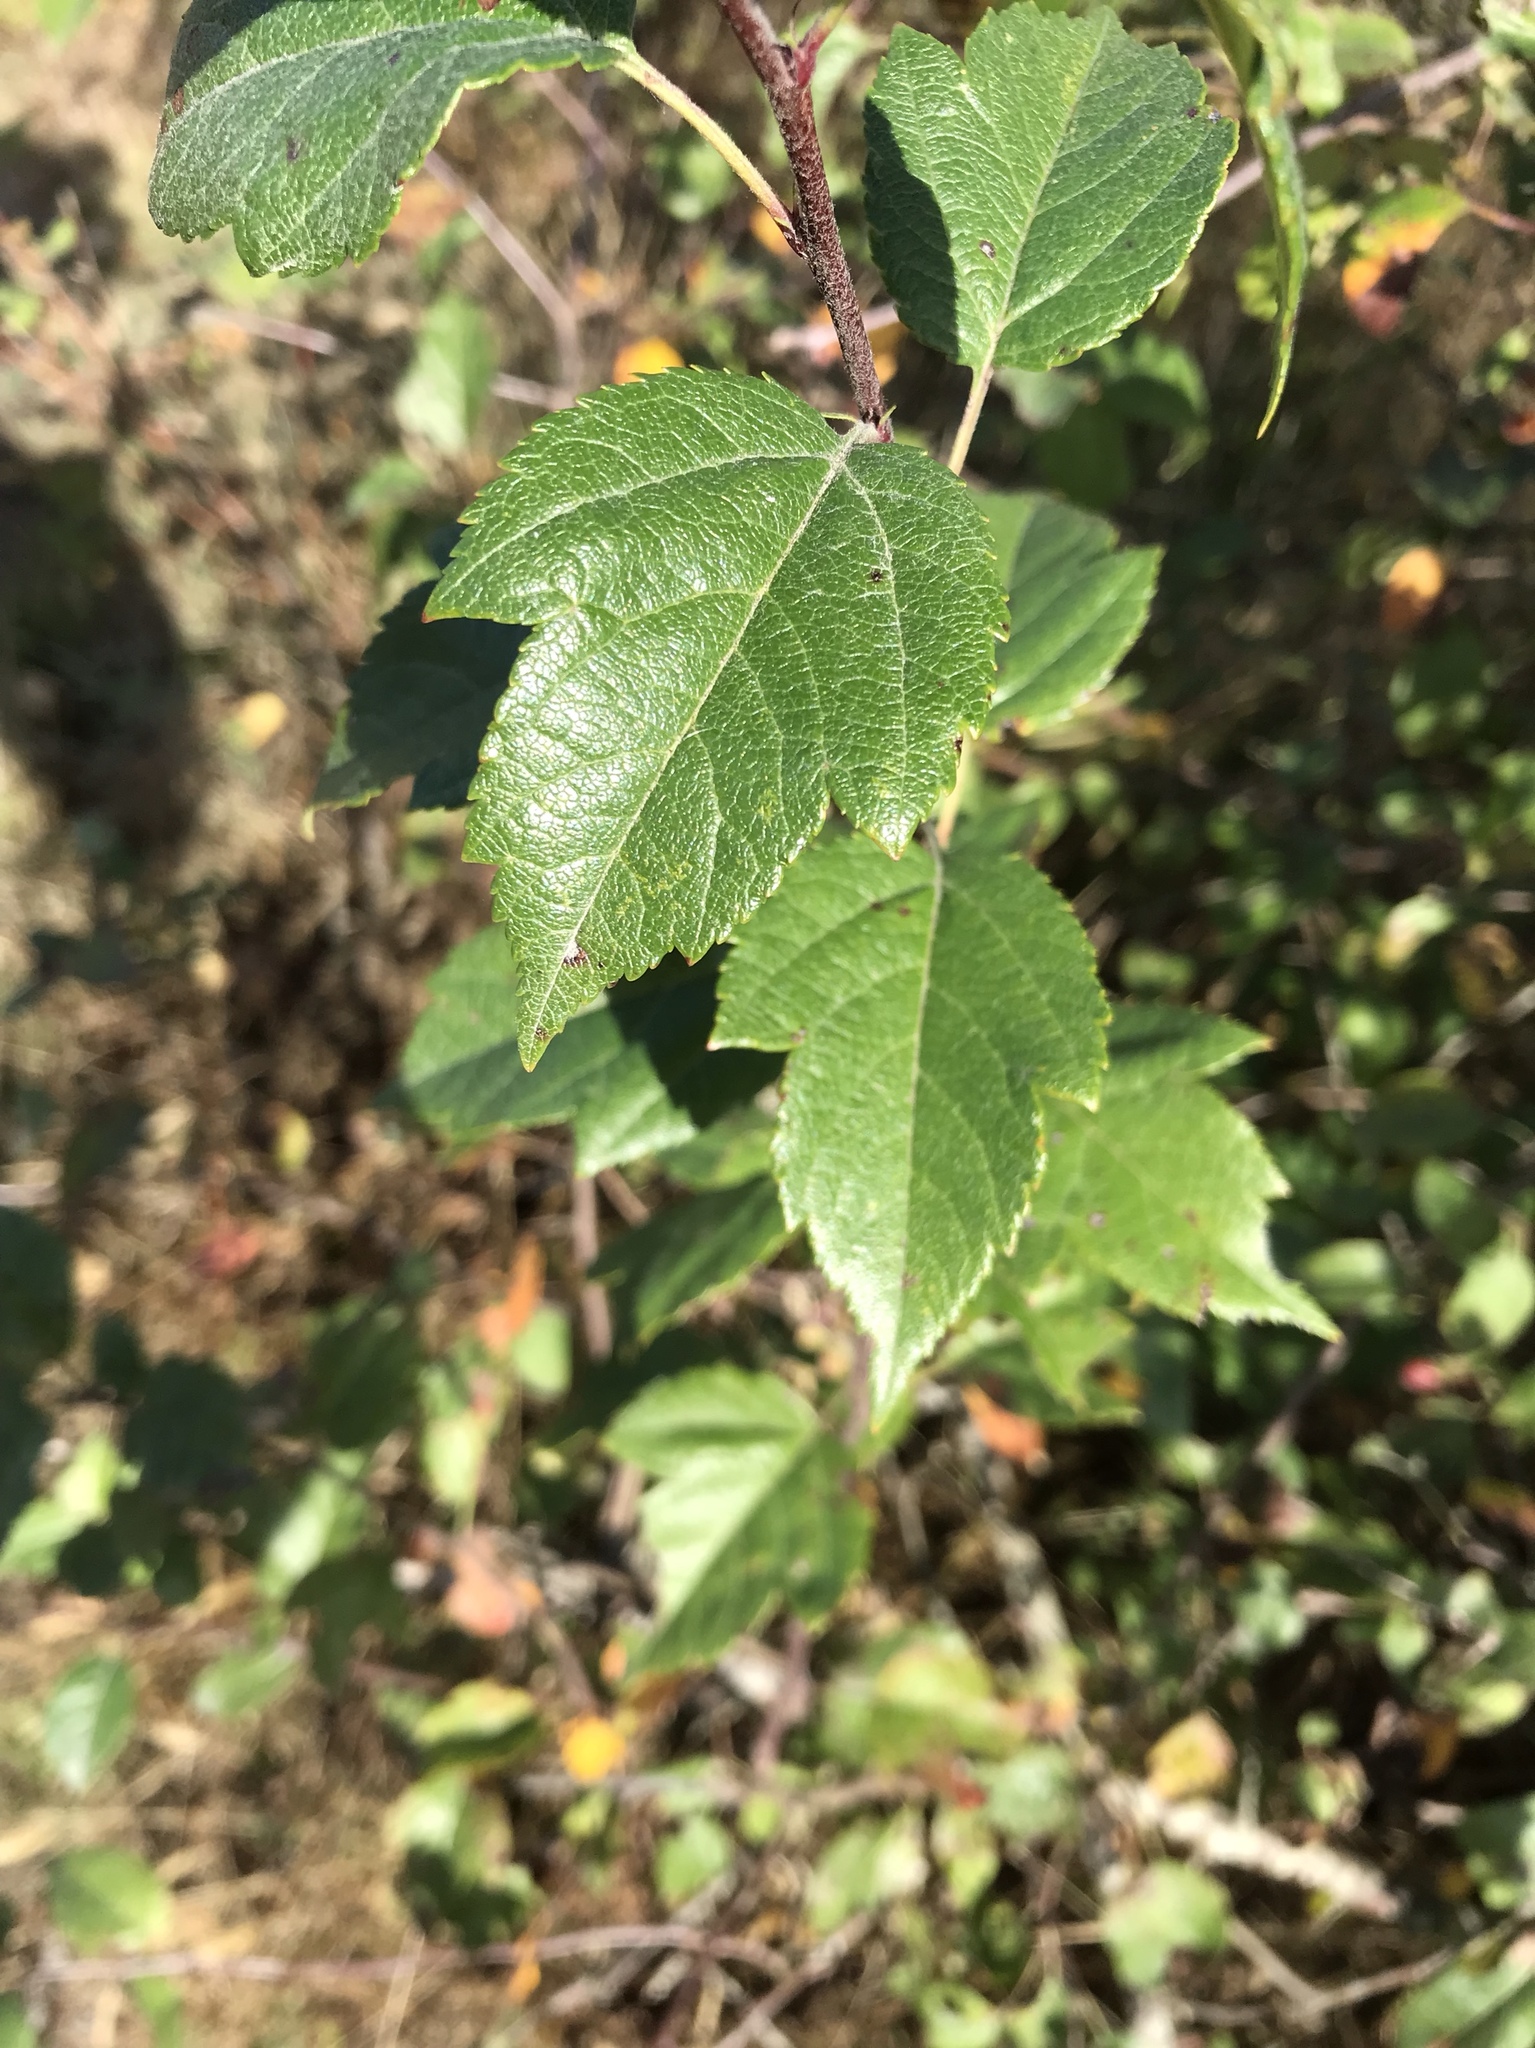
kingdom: Plantae
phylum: Tracheophyta
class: Magnoliopsida
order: Rosales
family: Rosaceae
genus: Malus
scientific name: Malus fusca
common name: Oregon crab apple
